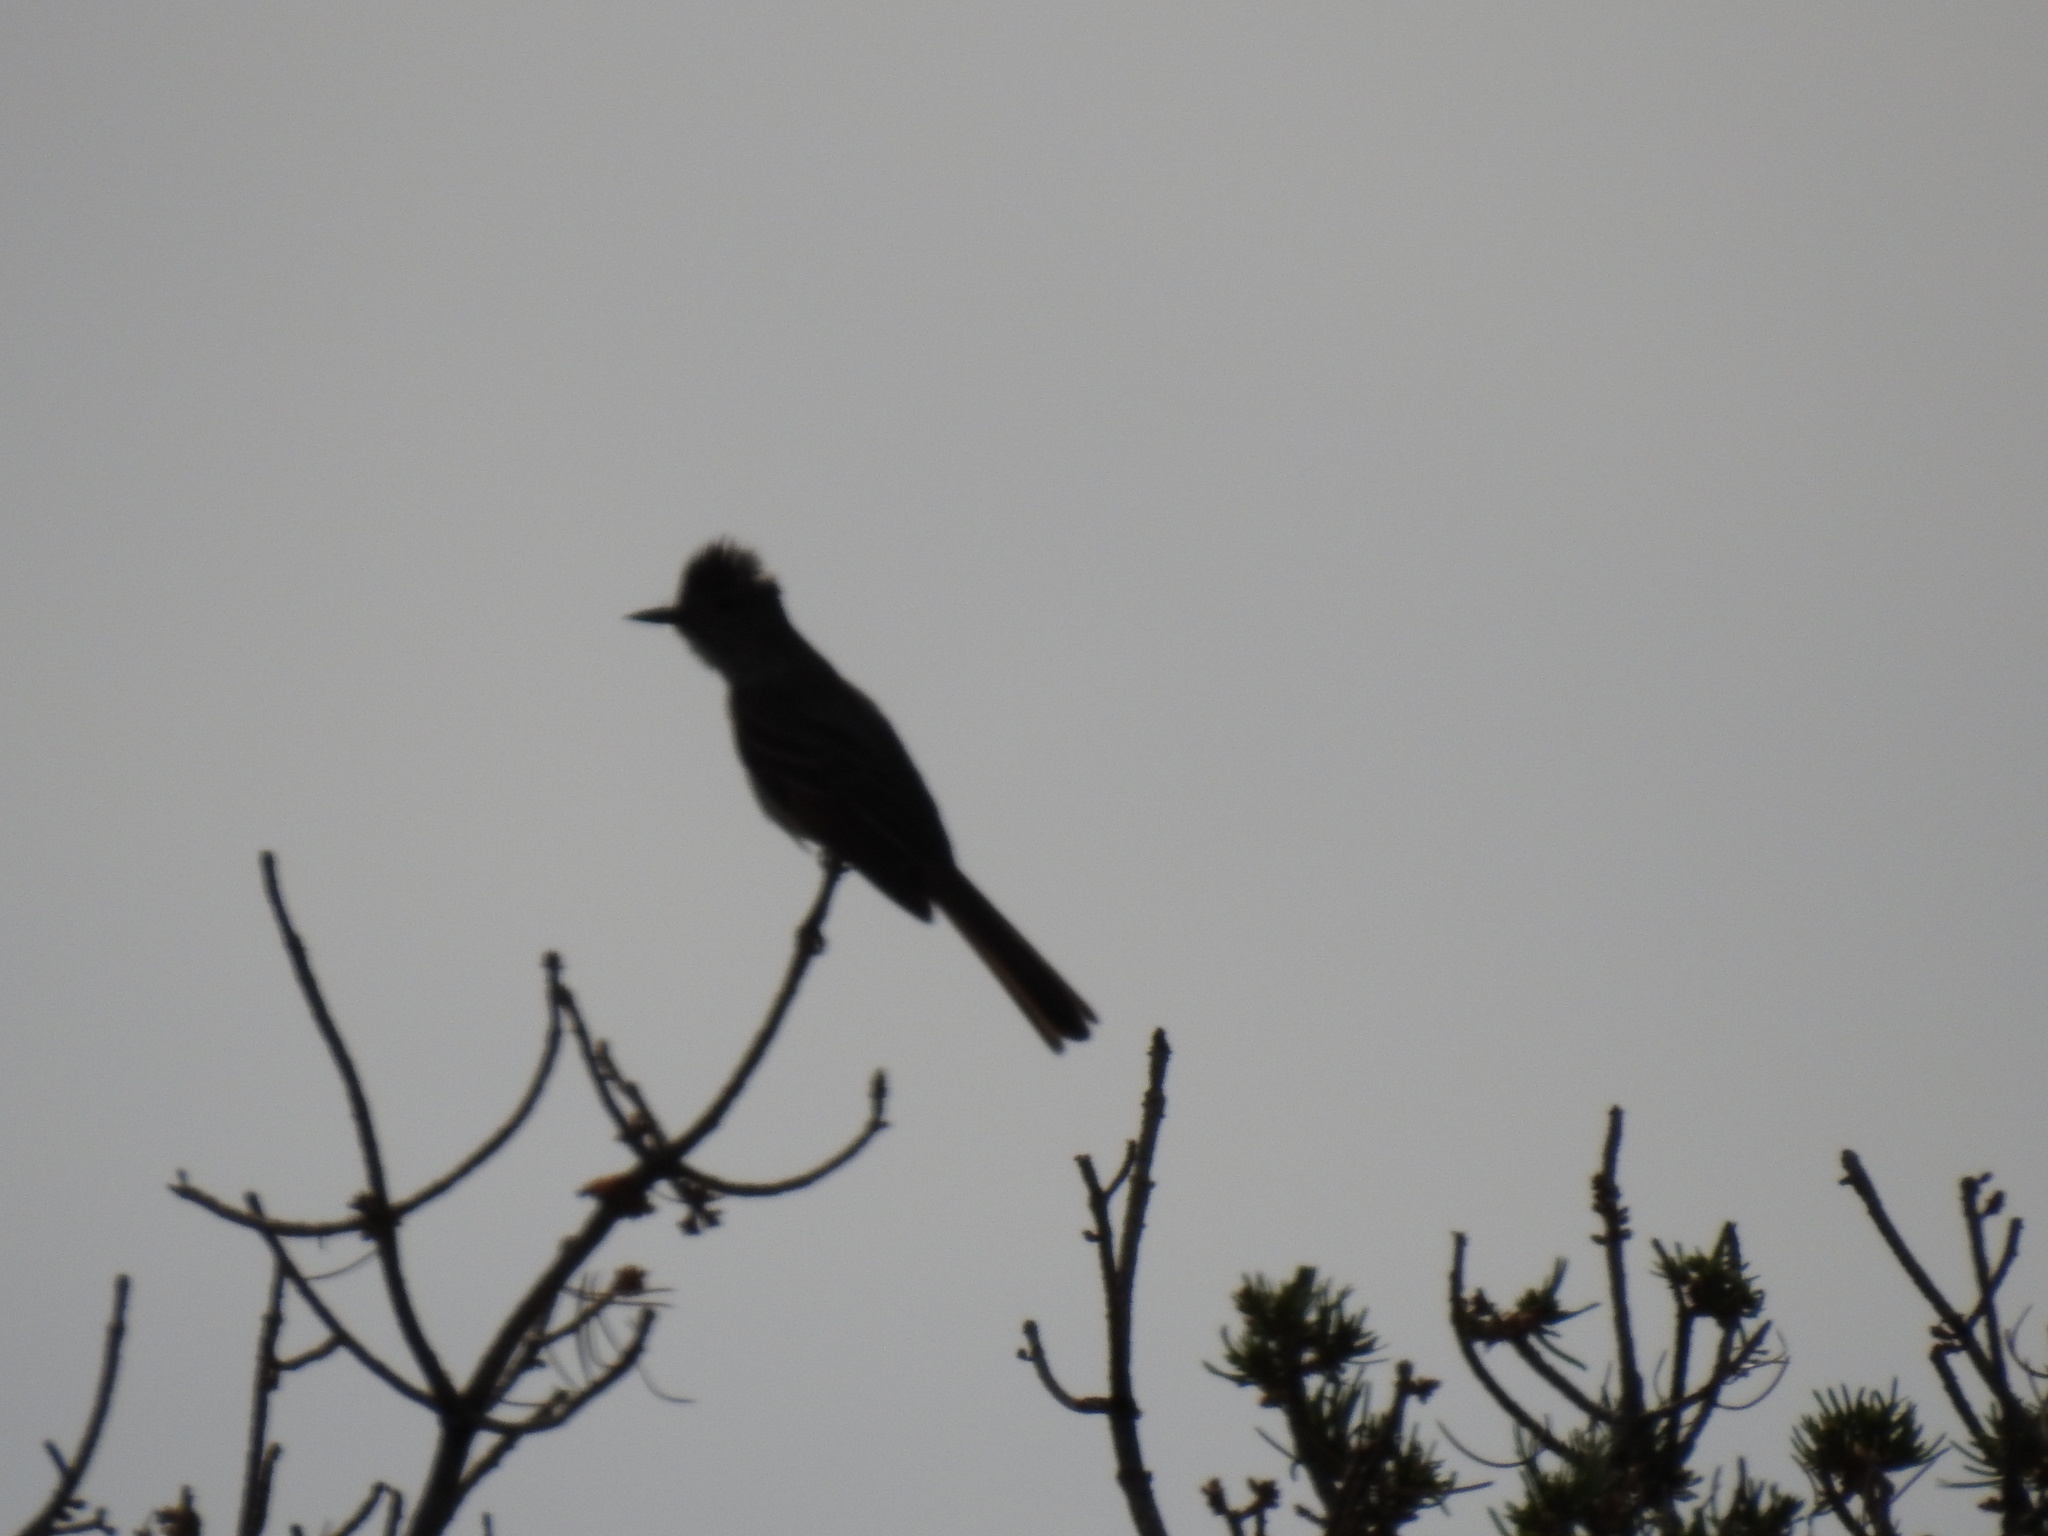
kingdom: Animalia
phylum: Chordata
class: Aves
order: Passeriformes
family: Tyrannidae
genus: Myiarchus
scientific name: Myiarchus cinerascens
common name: Ash-throated flycatcher
